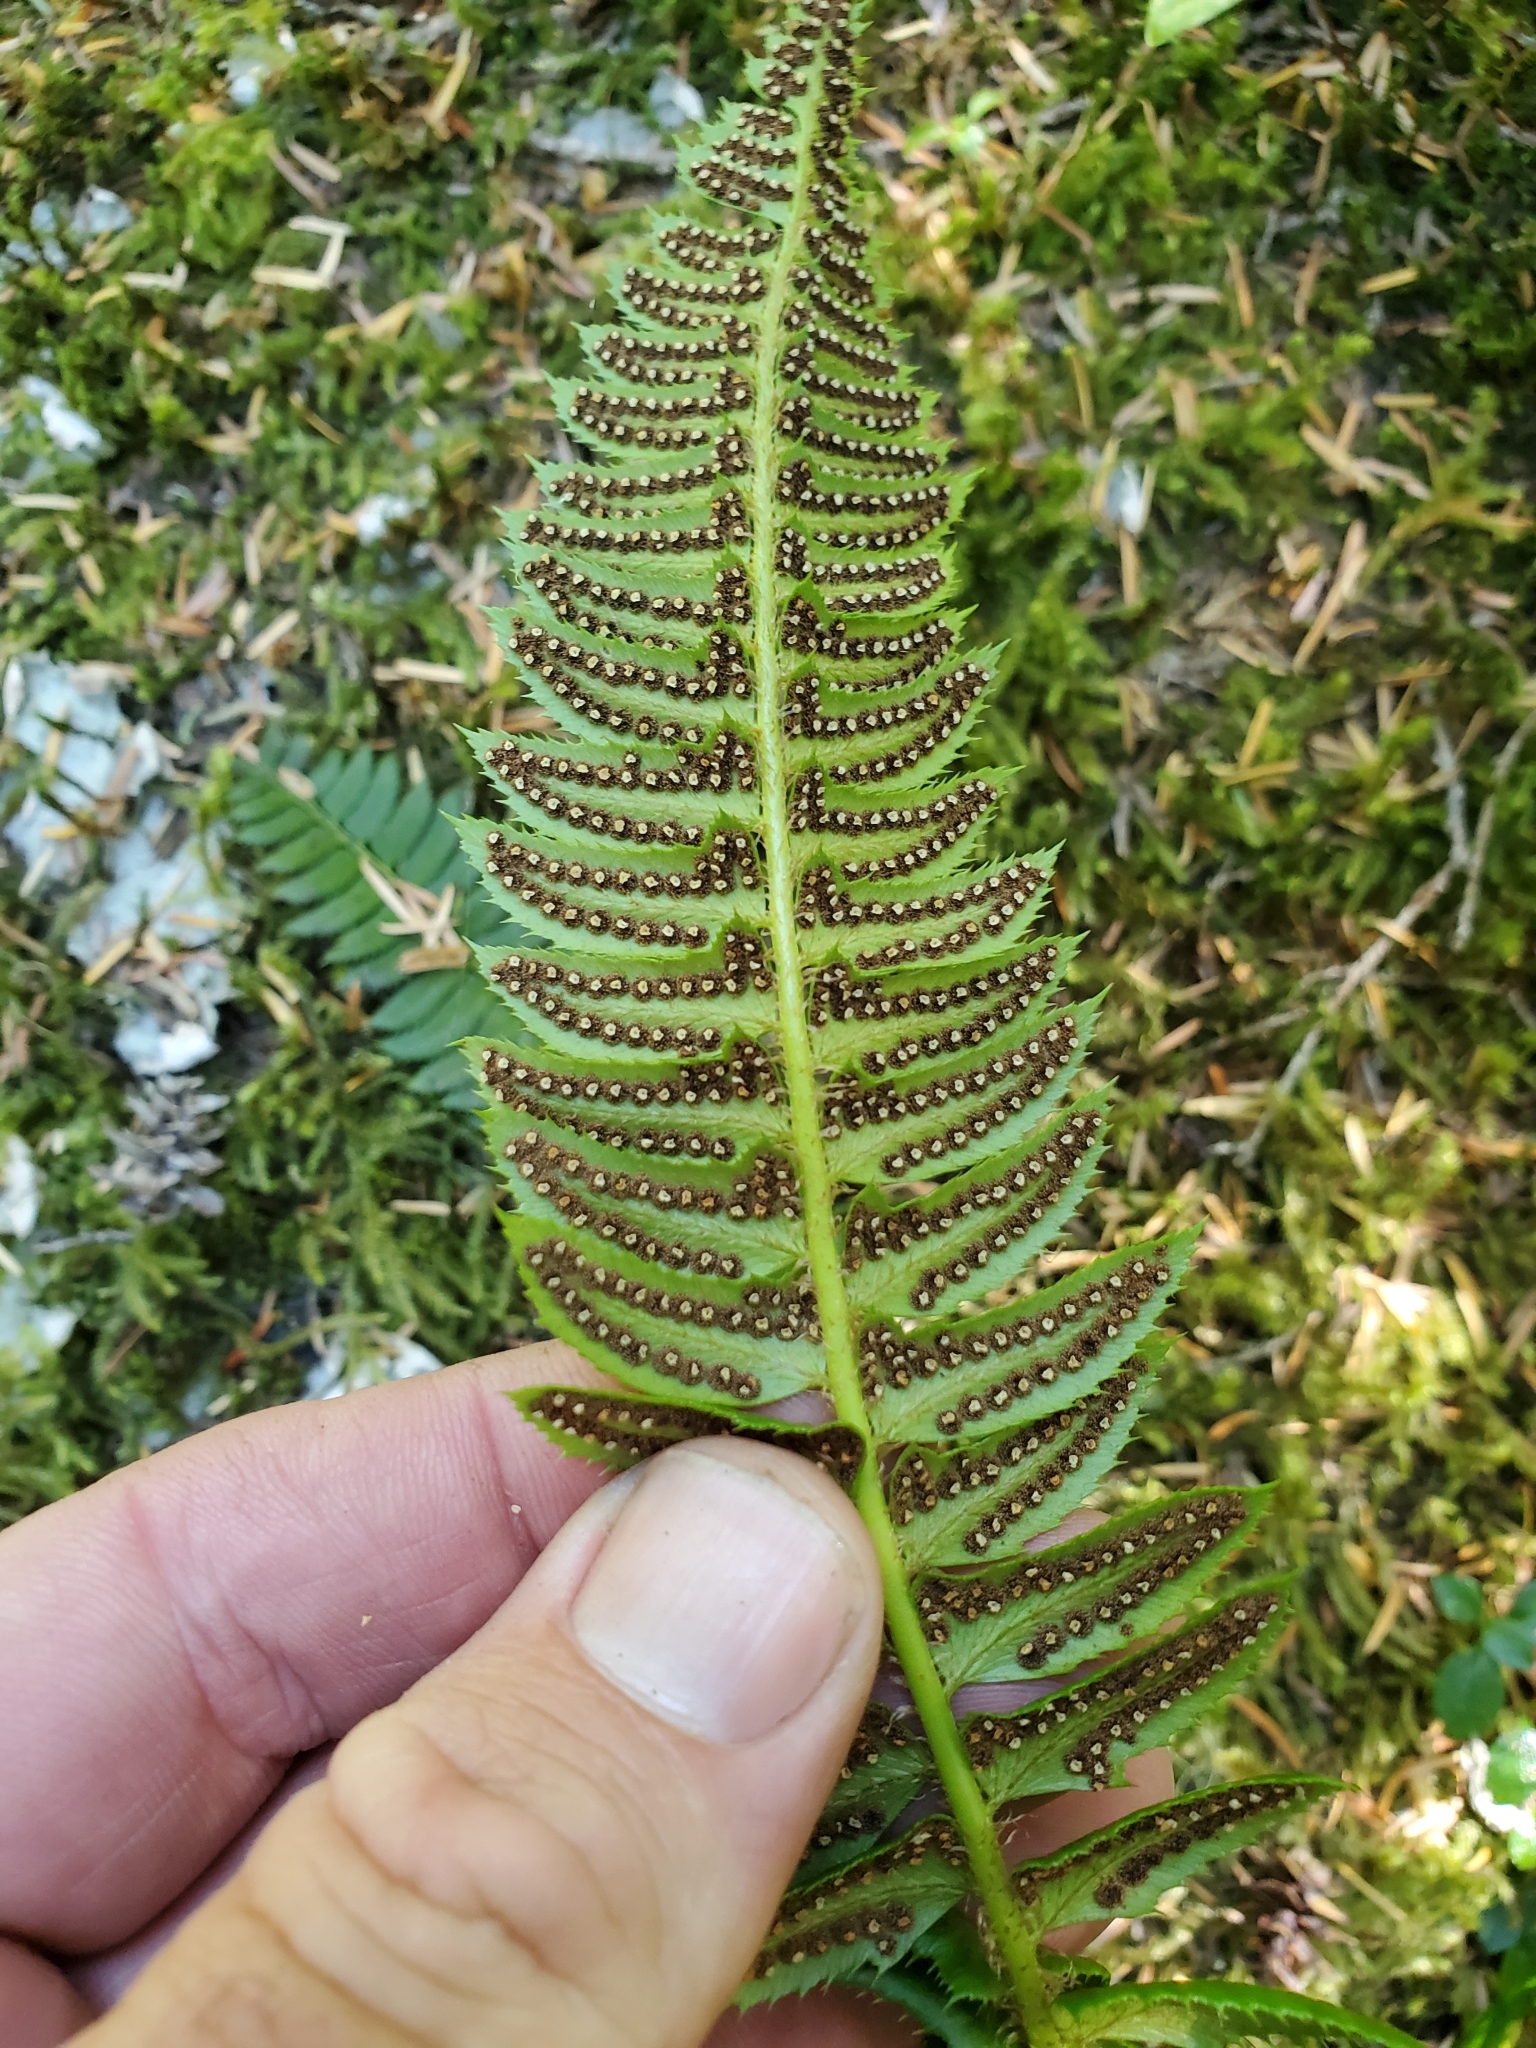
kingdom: Plantae
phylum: Tracheophyta
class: Polypodiopsida
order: Polypodiales
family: Dryopteridaceae
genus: Polystichum
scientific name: Polystichum lonchitis
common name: Holly fern
